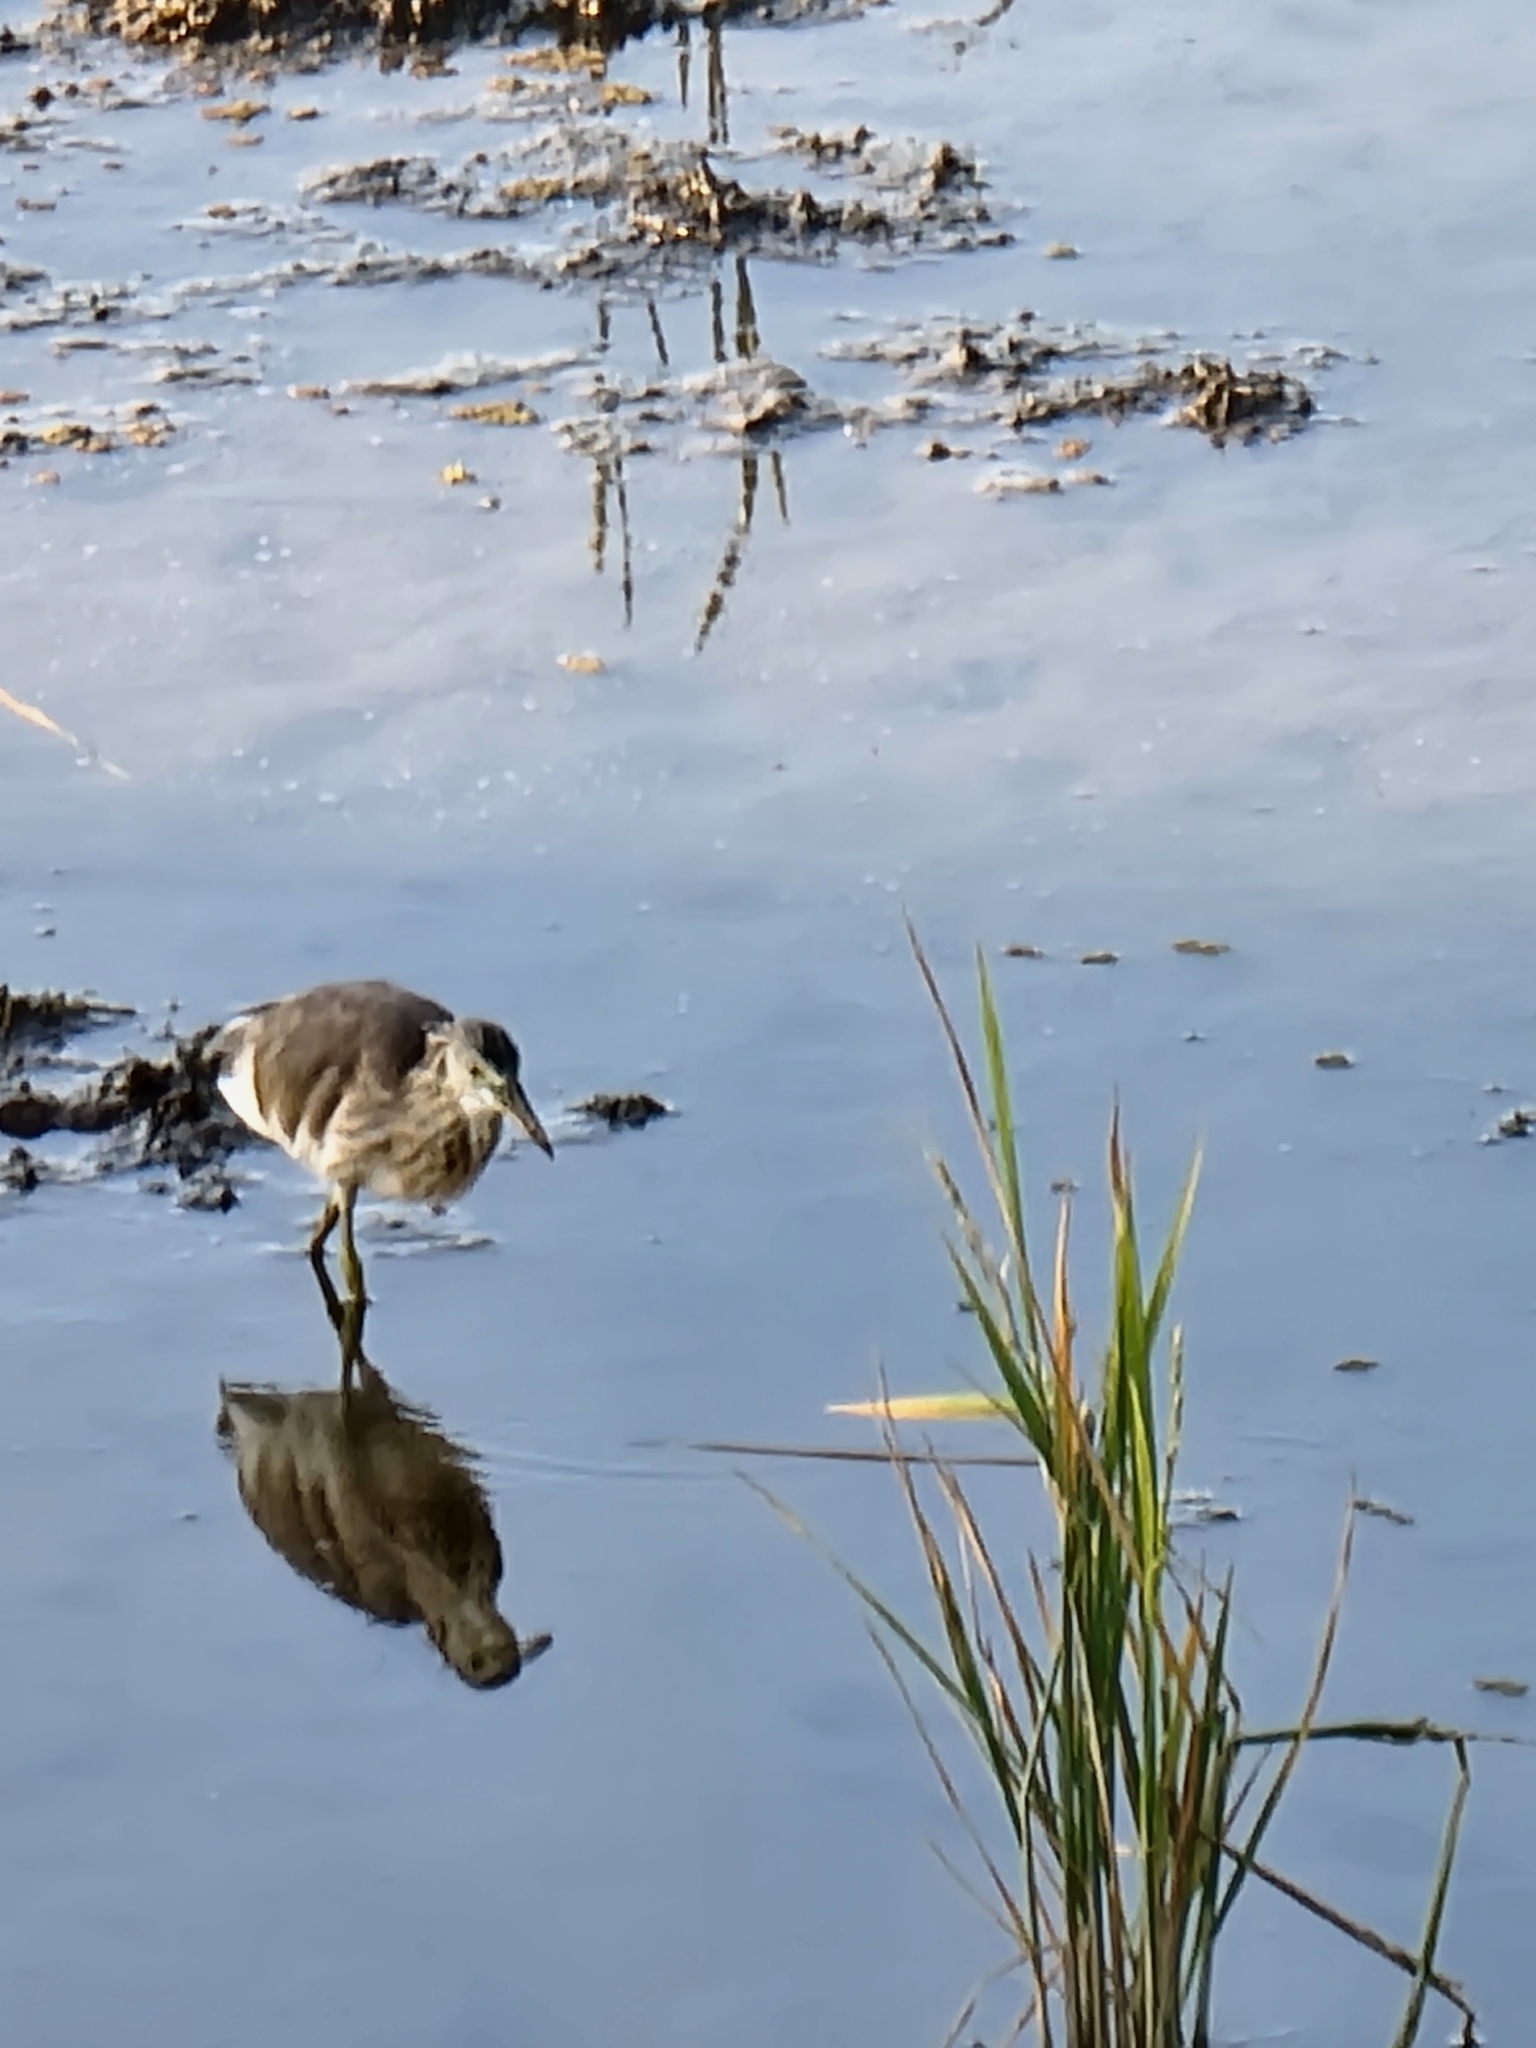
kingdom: Animalia
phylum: Chordata
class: Aves
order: Pelecaniformes
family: Ardeidae
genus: Ardeola
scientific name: Ardeola speciosa
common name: Javan pond heron
